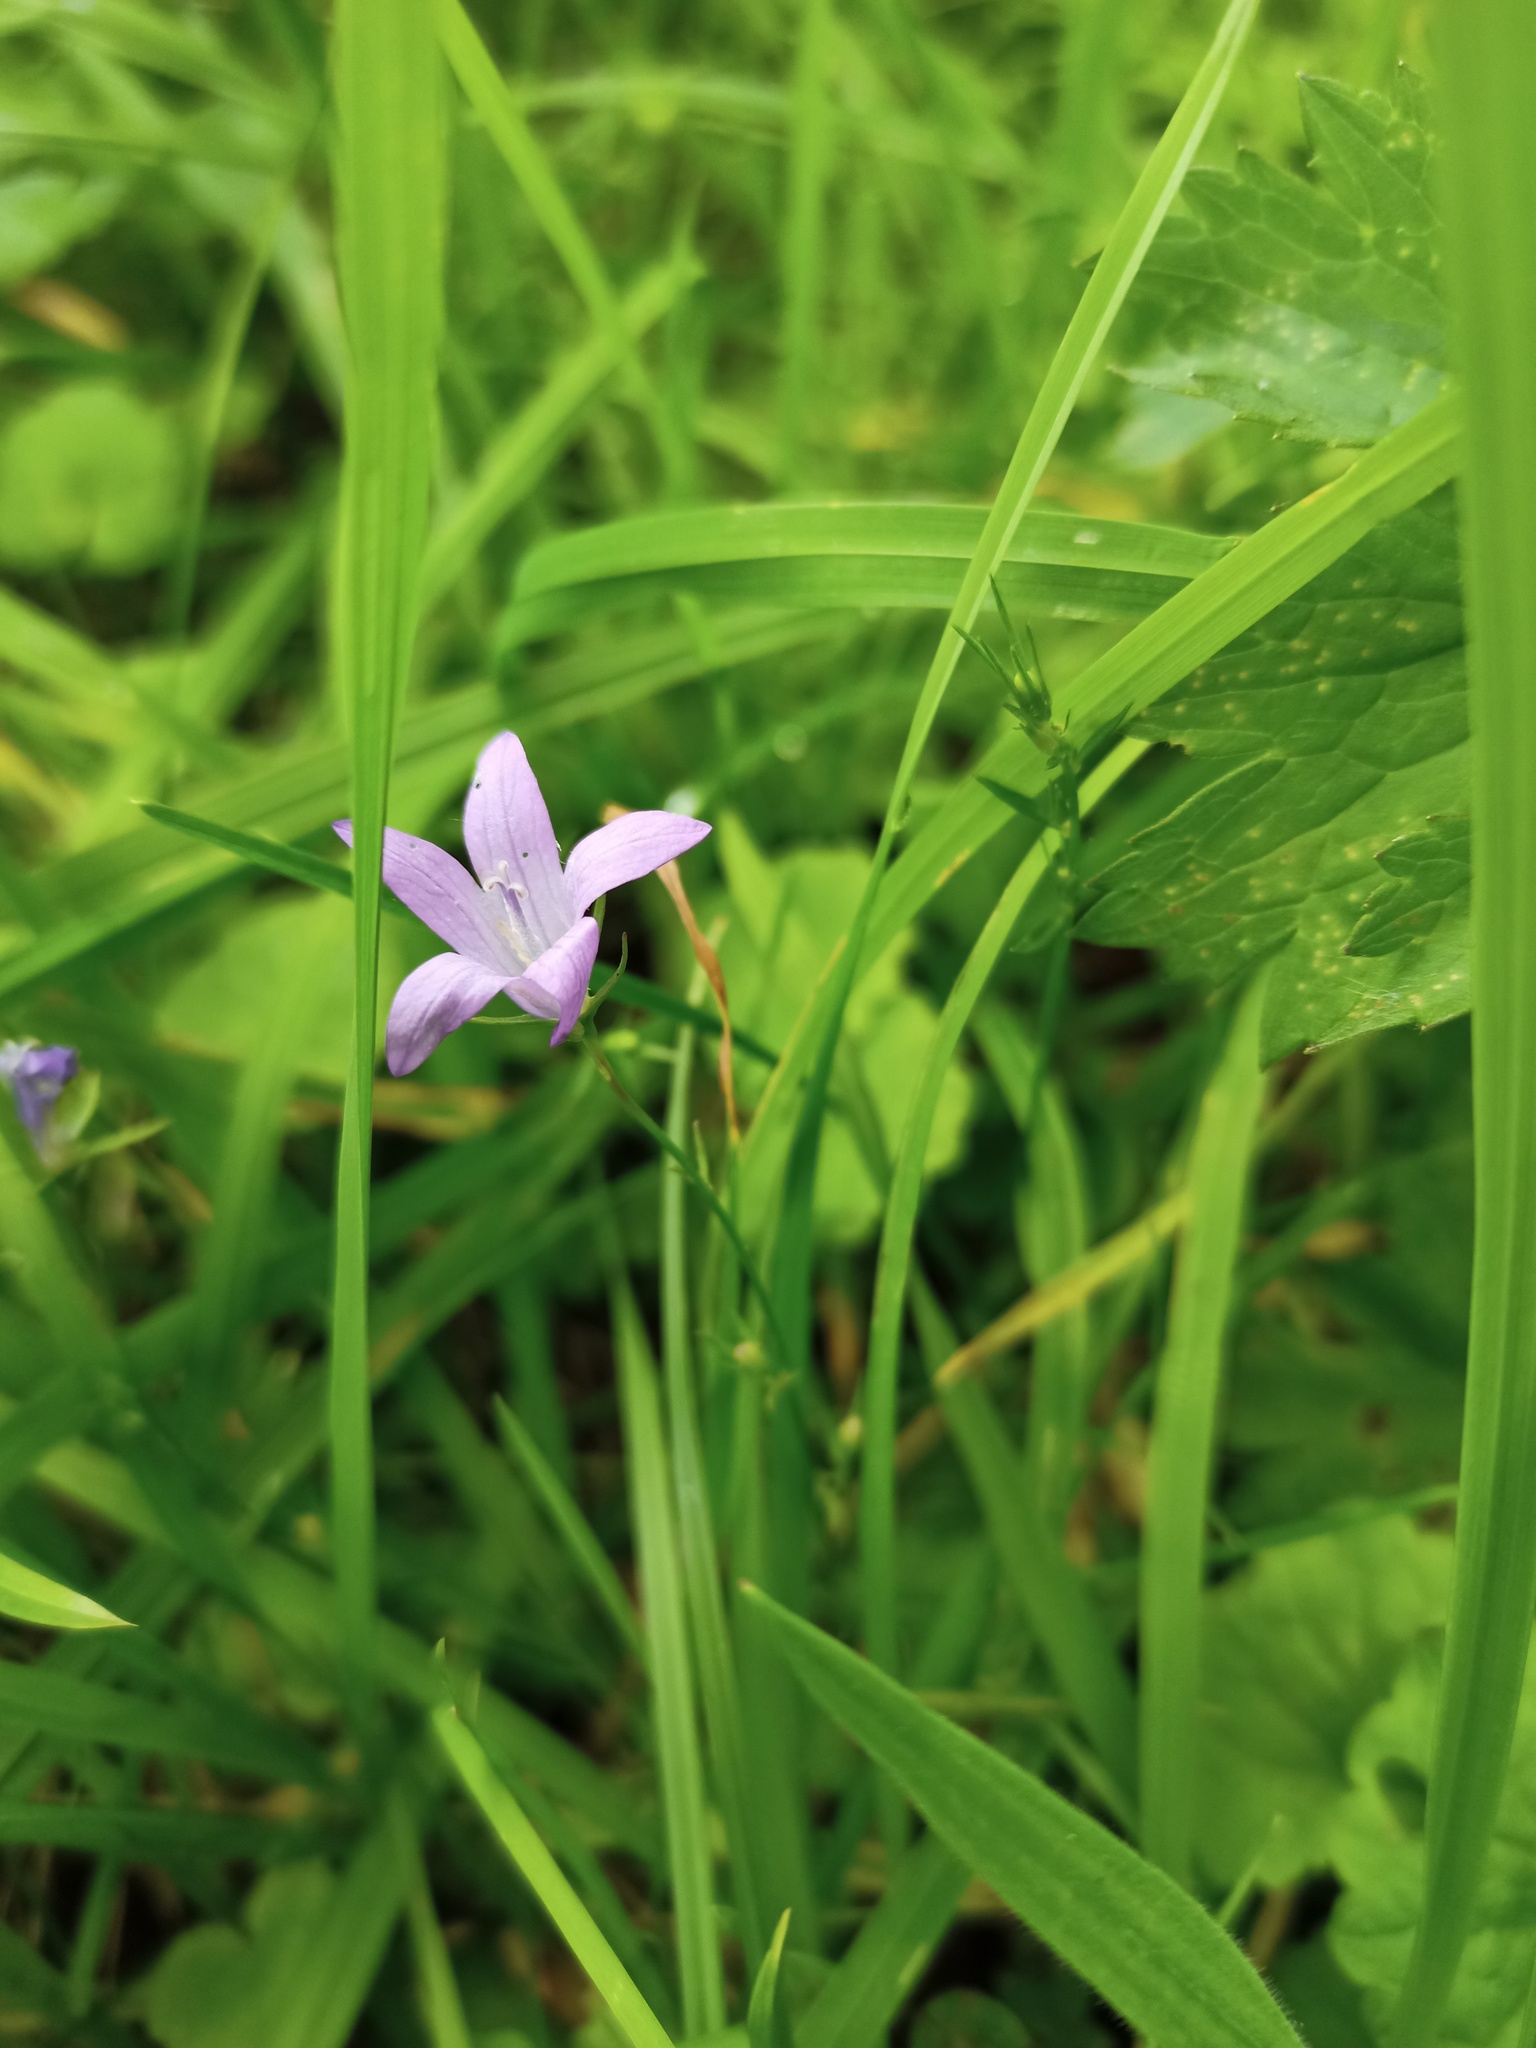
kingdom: Plantae
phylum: Tracheophyta
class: Magnoliopsida
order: Asterales
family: Campanulaceae
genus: Campanula
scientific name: Campanula rapunculus
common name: Rampion bellflower
